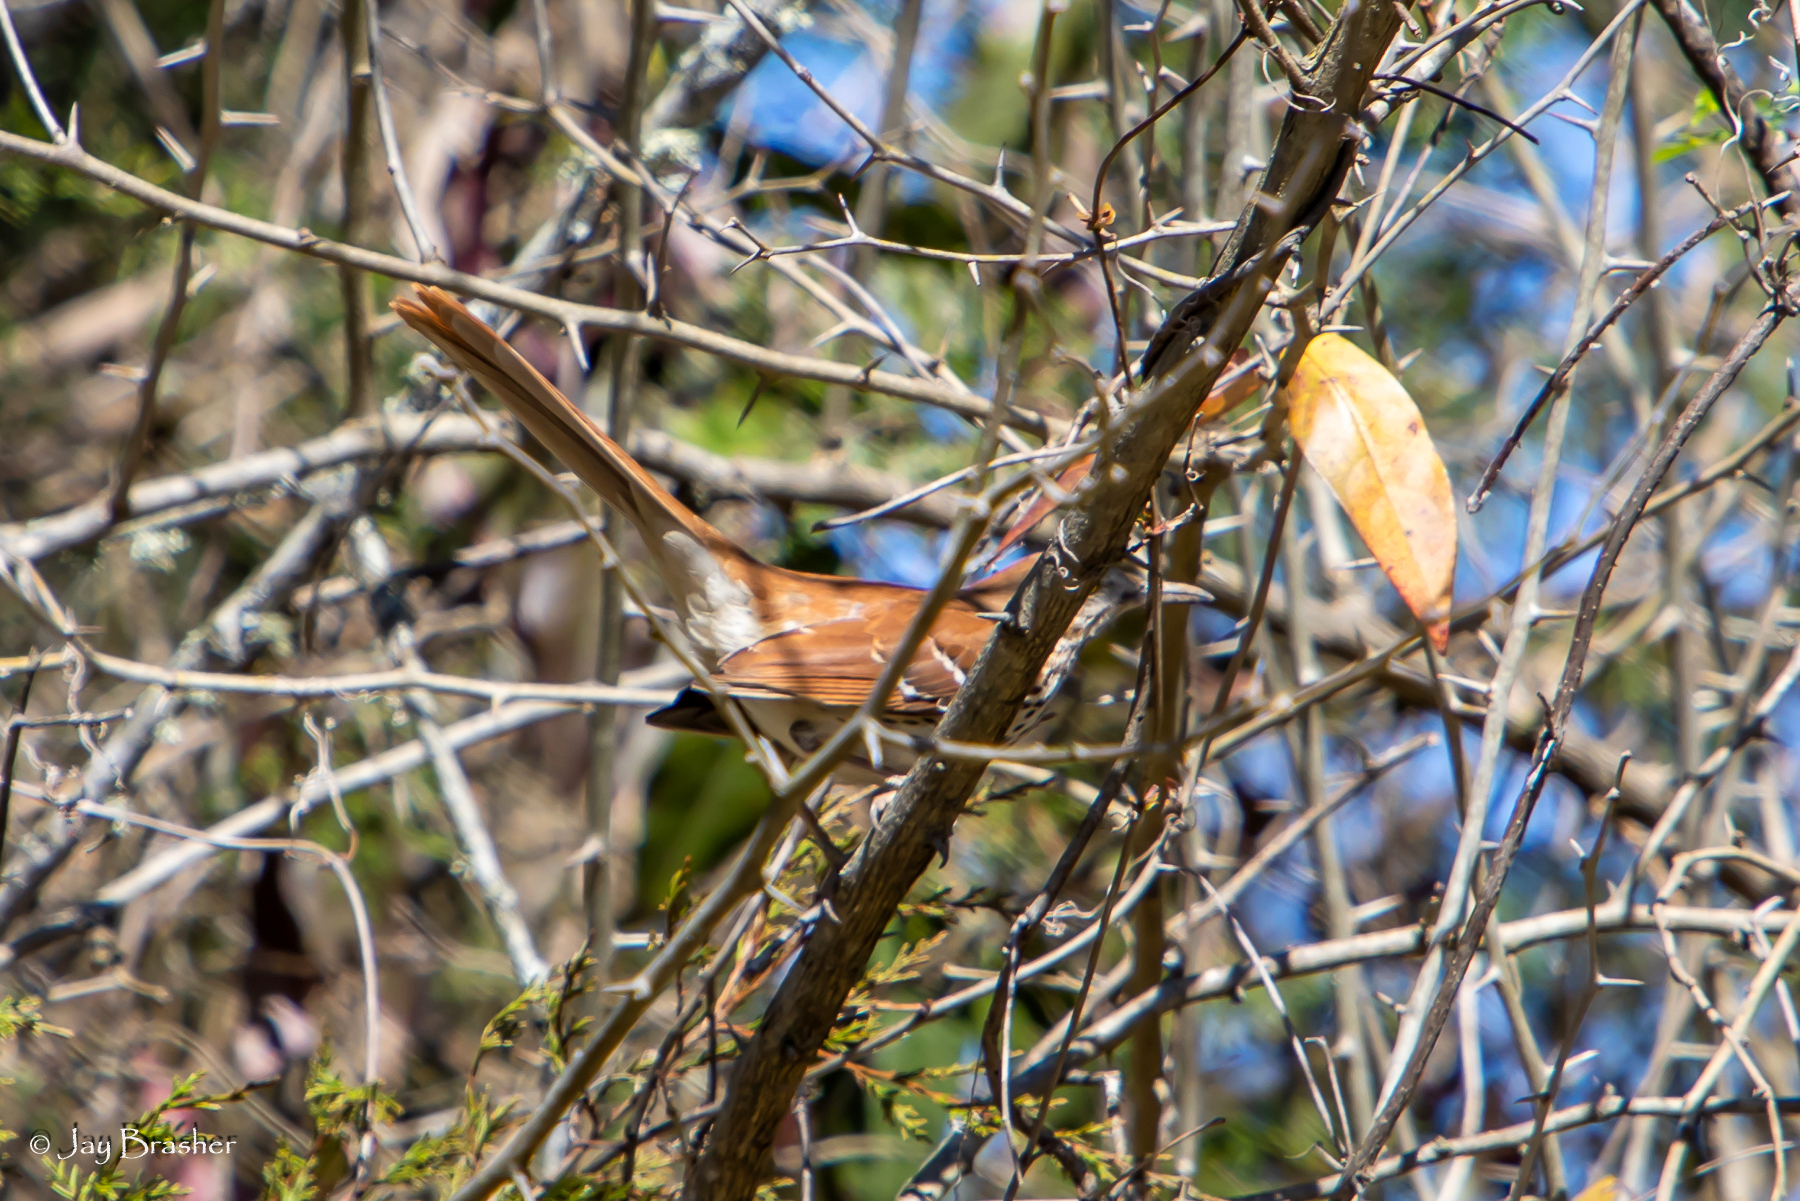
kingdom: Animalia
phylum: Chordata
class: Aves
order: Passeriformes
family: Mimidae
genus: Toxostoma
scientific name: Toxostoma rufum
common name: Brown thrasher
